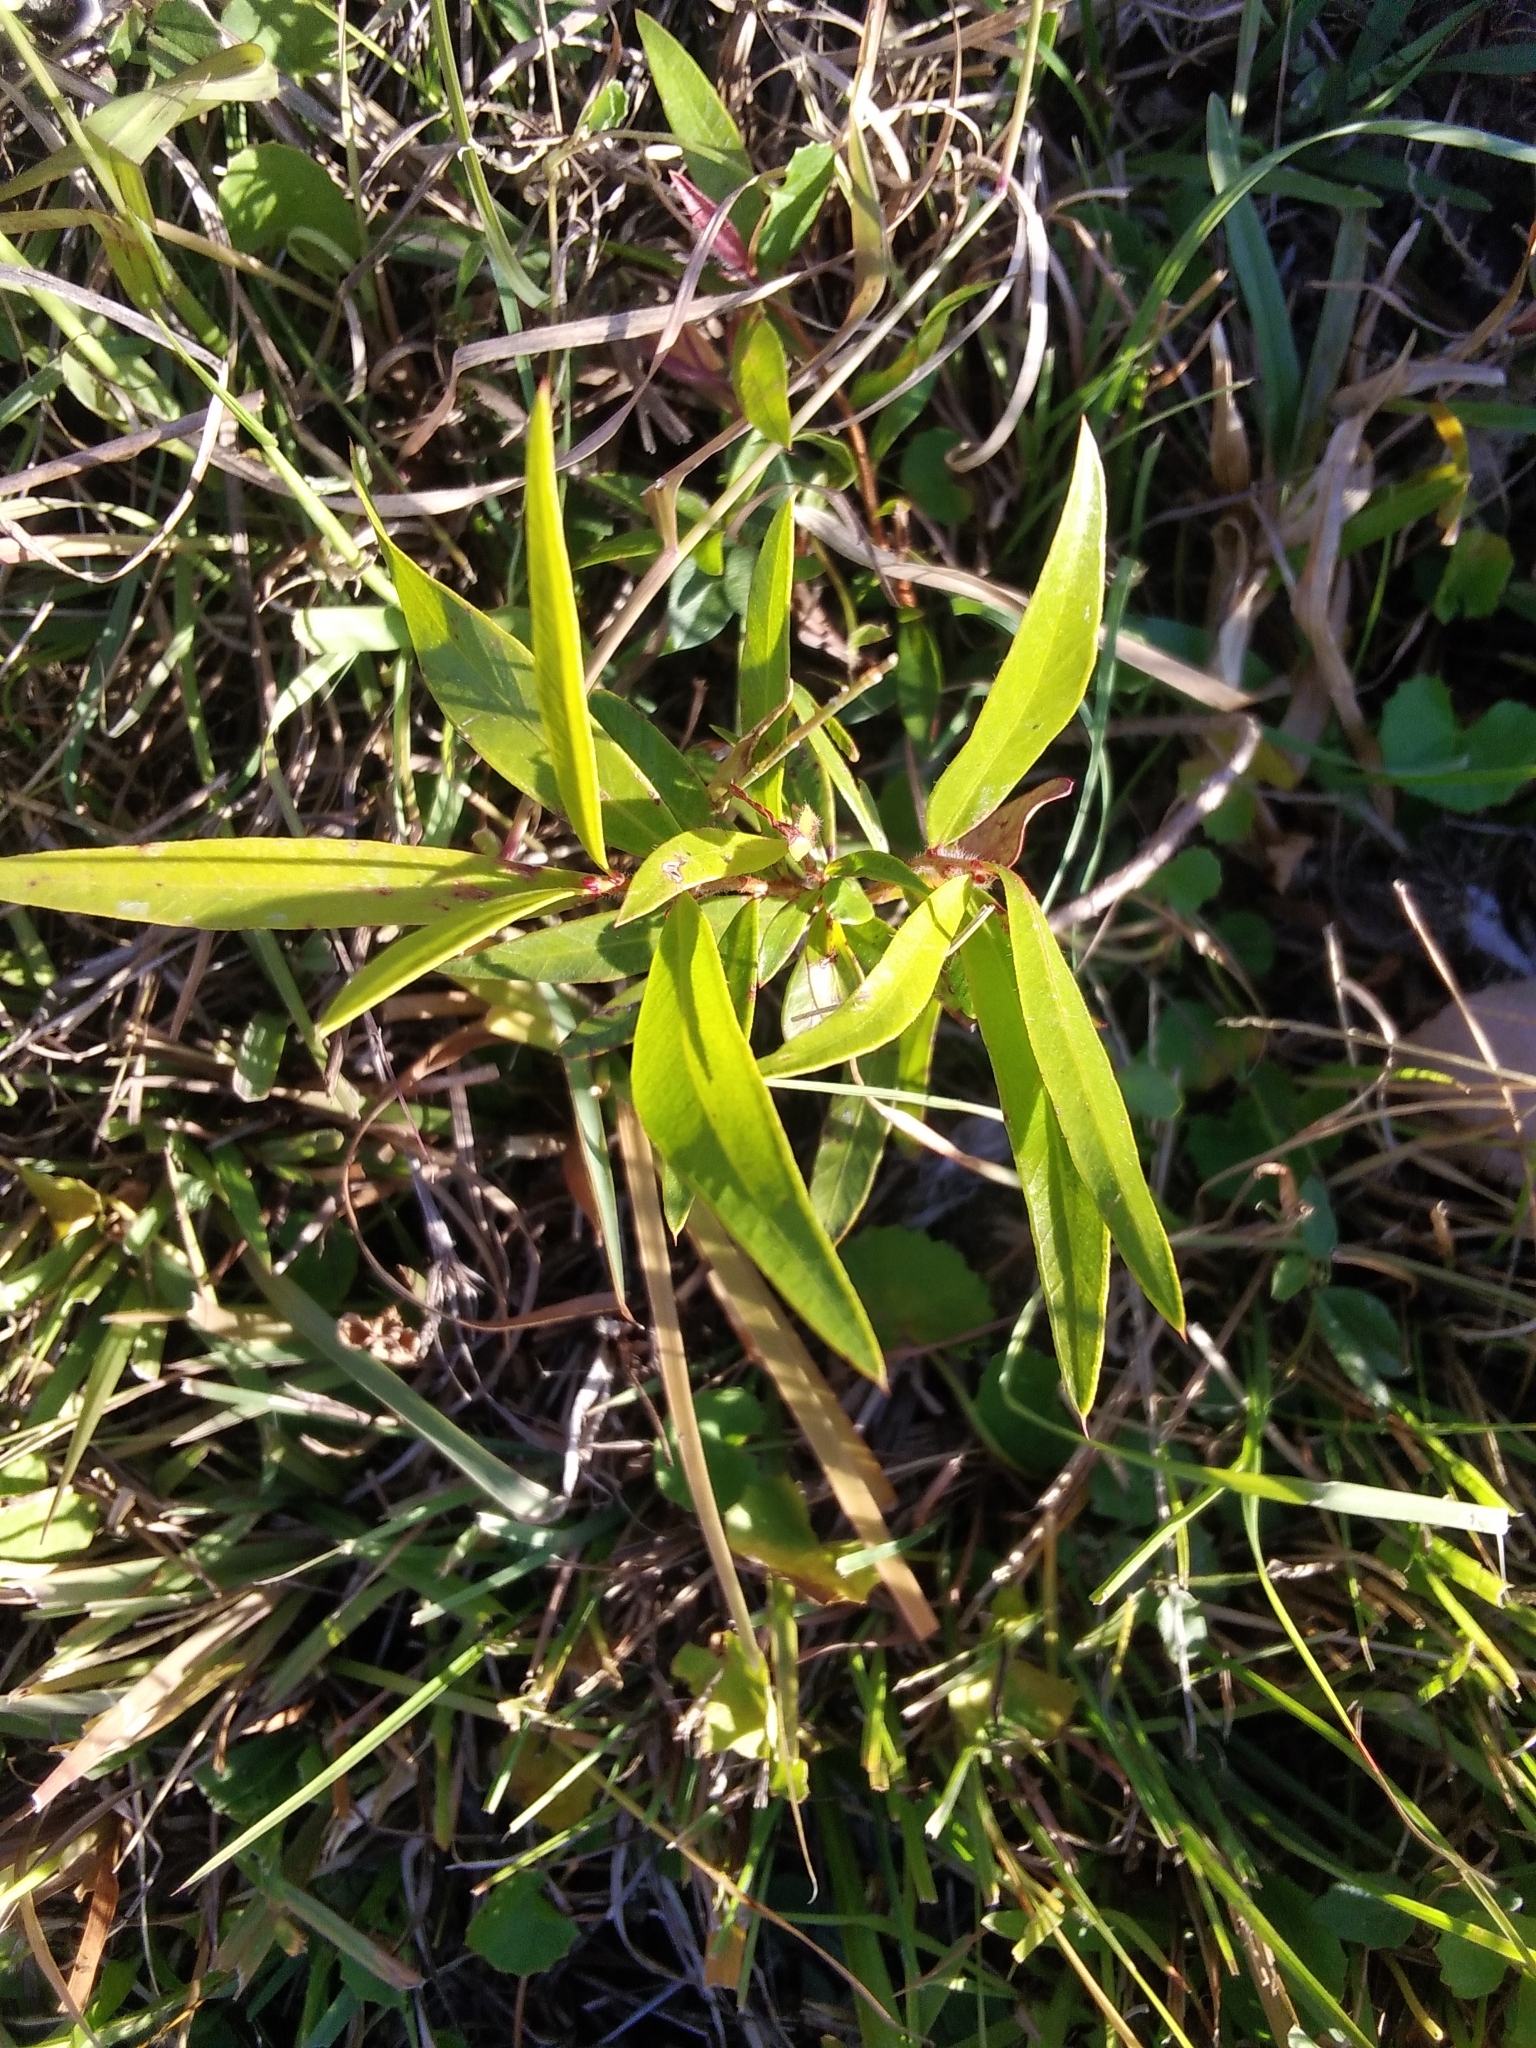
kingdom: Plantae
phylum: Tracheophyta
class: Magnoliopsida
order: Lamiales
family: Scrophulariaceae
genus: Eremophila
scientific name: Eremophila debilis
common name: Winter-apple
